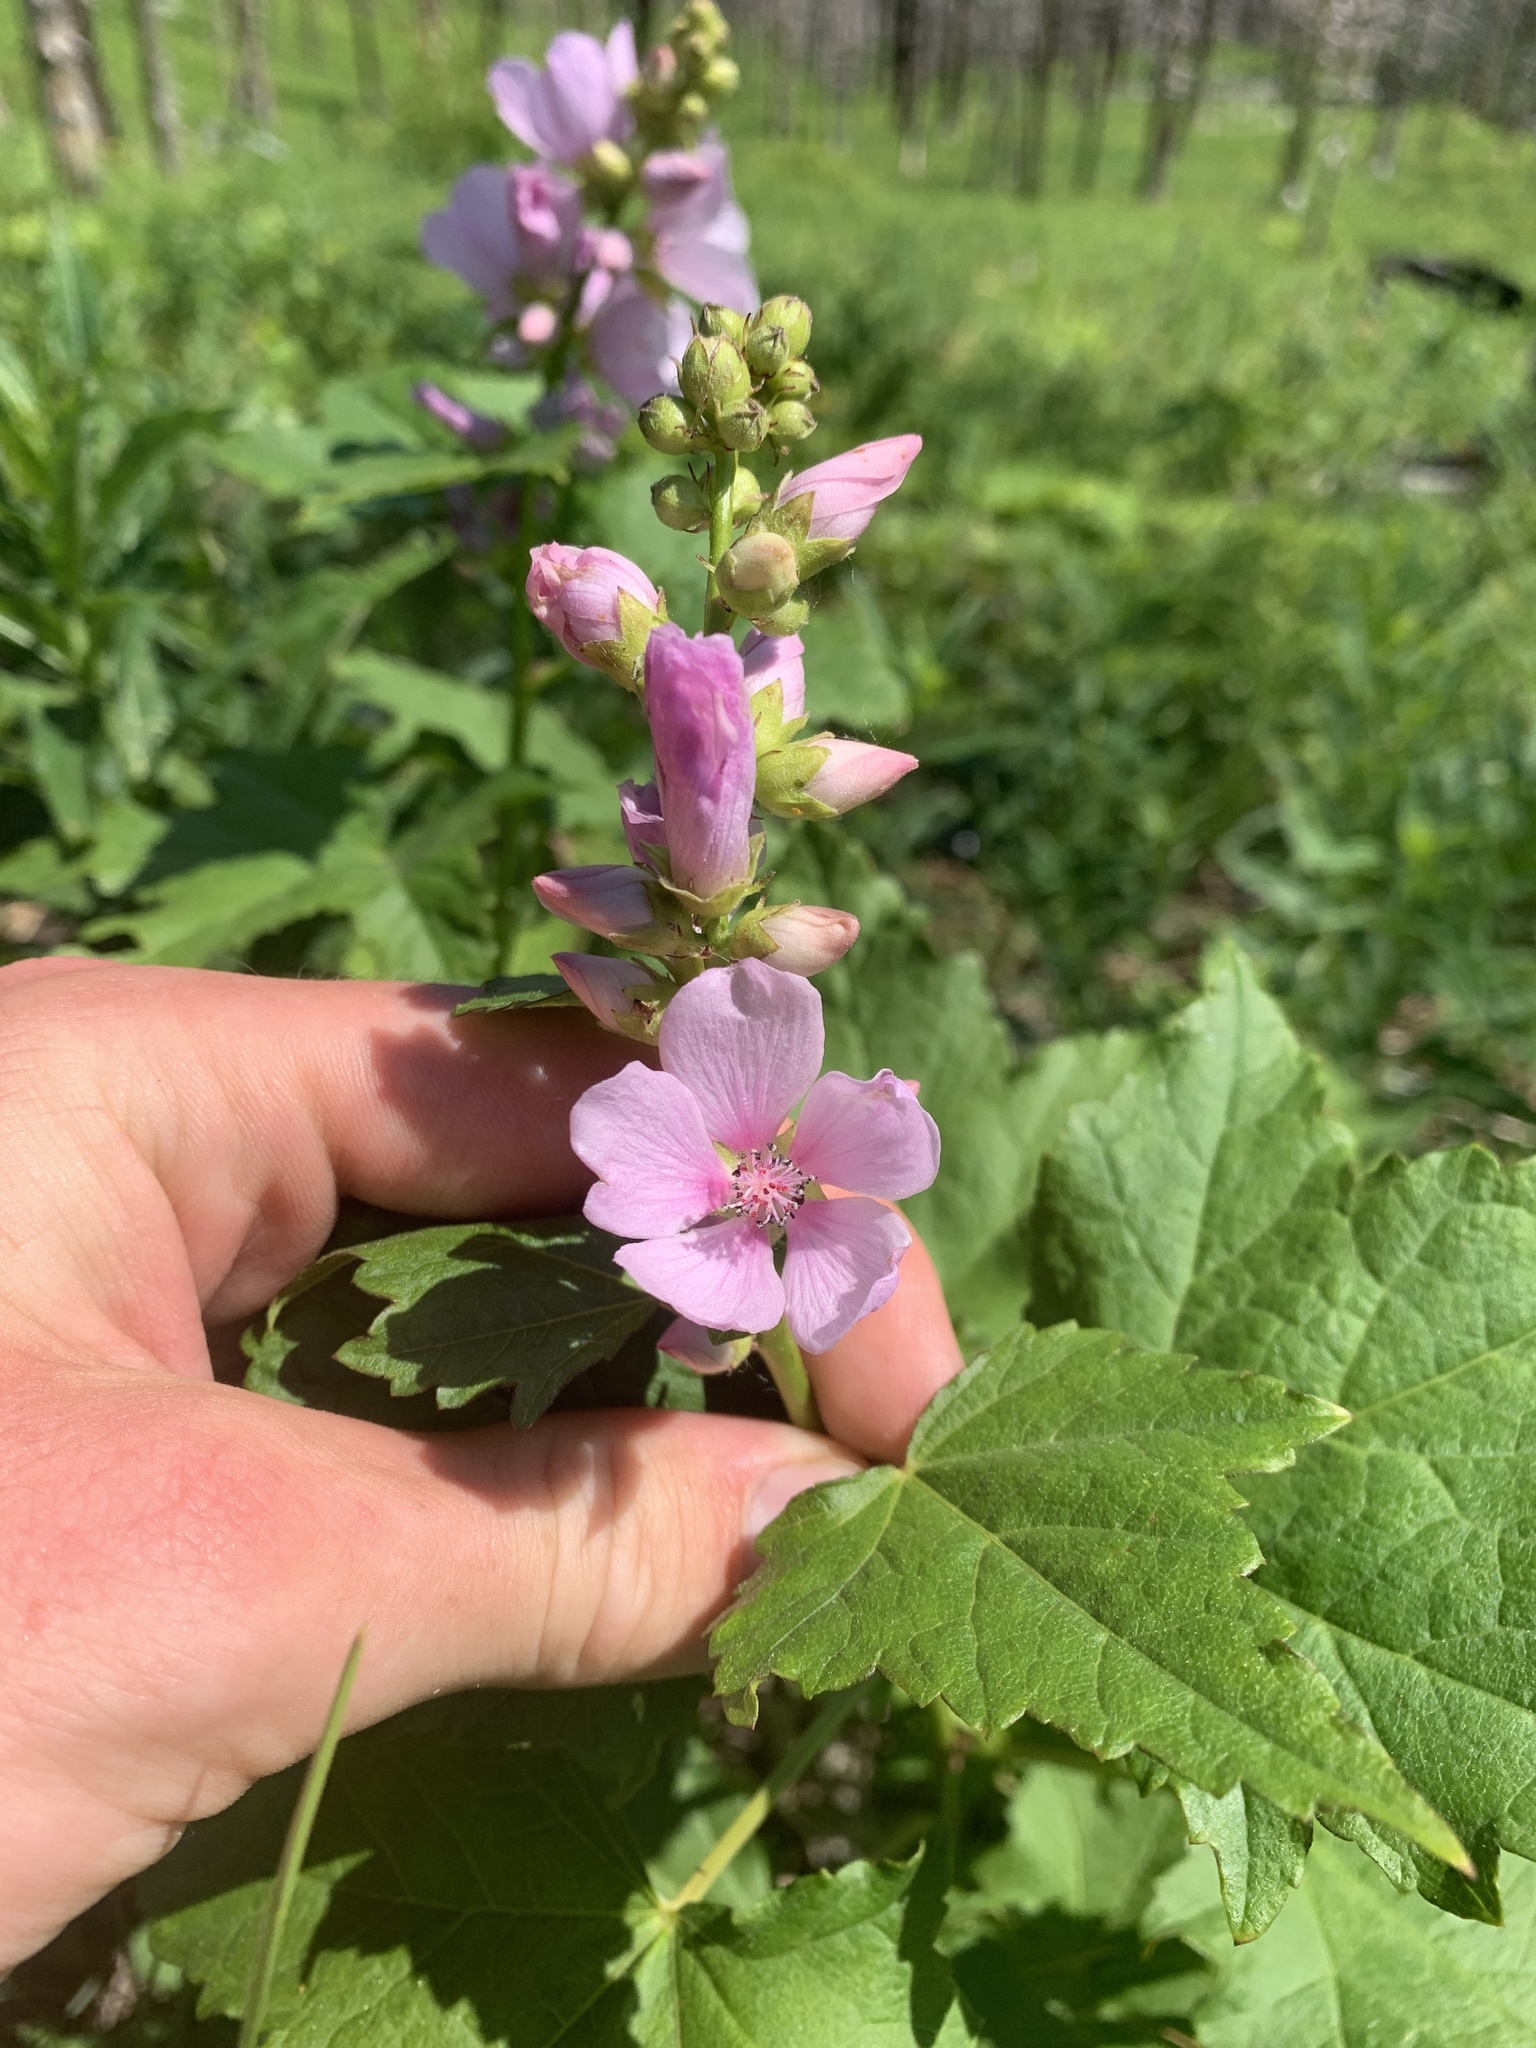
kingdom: Plantae
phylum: Tracheophyta
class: Magnoliopsida
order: Malvales
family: Malvaceae
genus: Iliamna
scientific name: Iliamna rivularis
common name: Wild hollyhock
